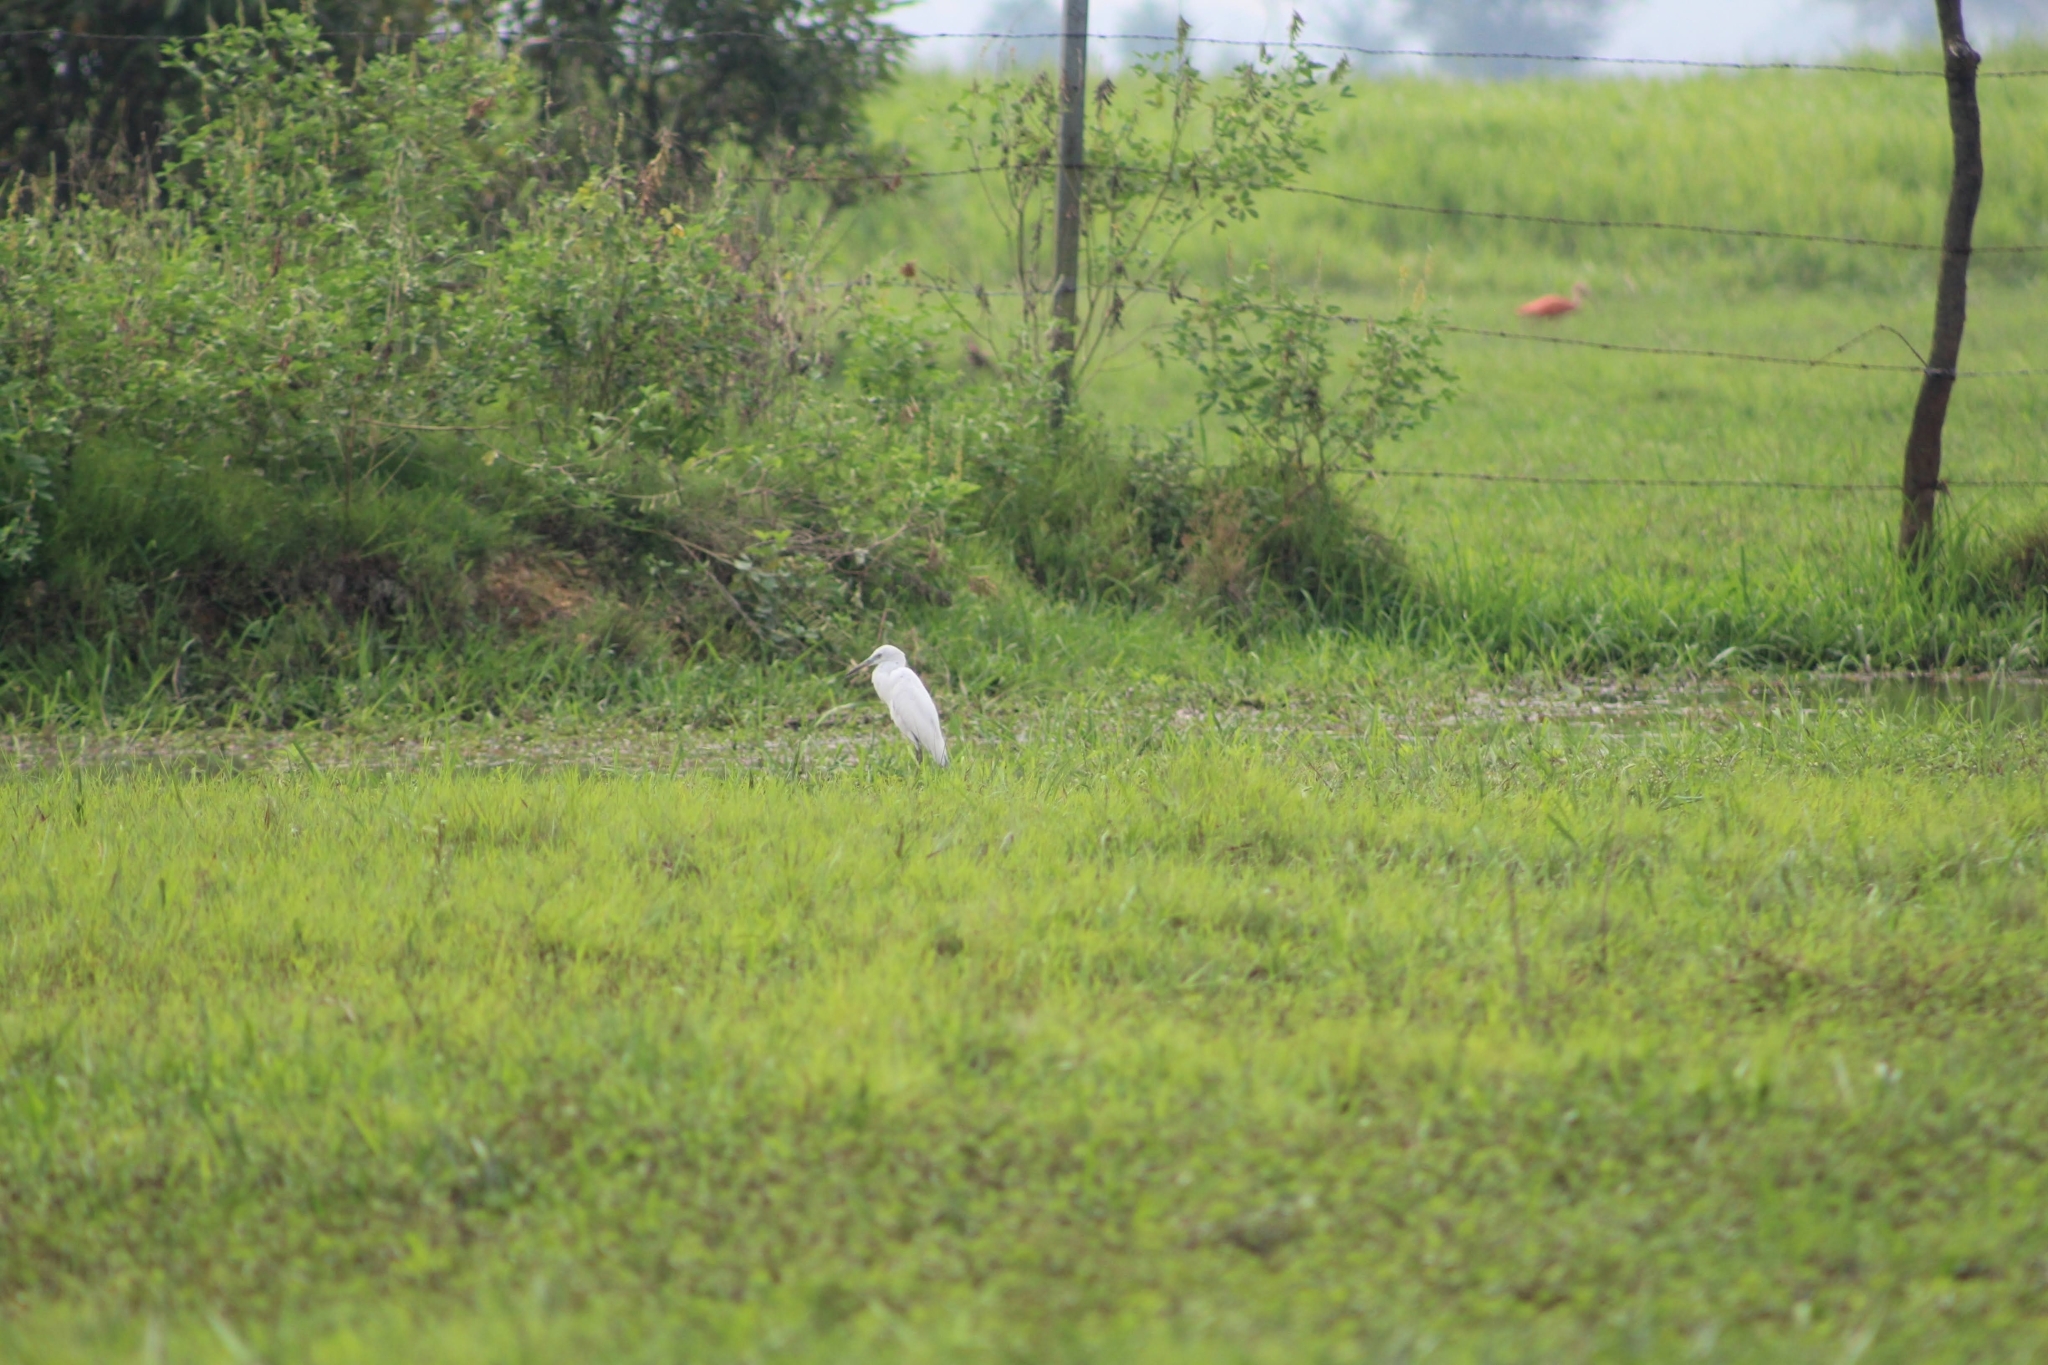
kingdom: Animalia
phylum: Chordata
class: Aves
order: Pelecaniformes
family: Ardeidae
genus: Egretta
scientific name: Egretta caerulea
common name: Little blue heron
